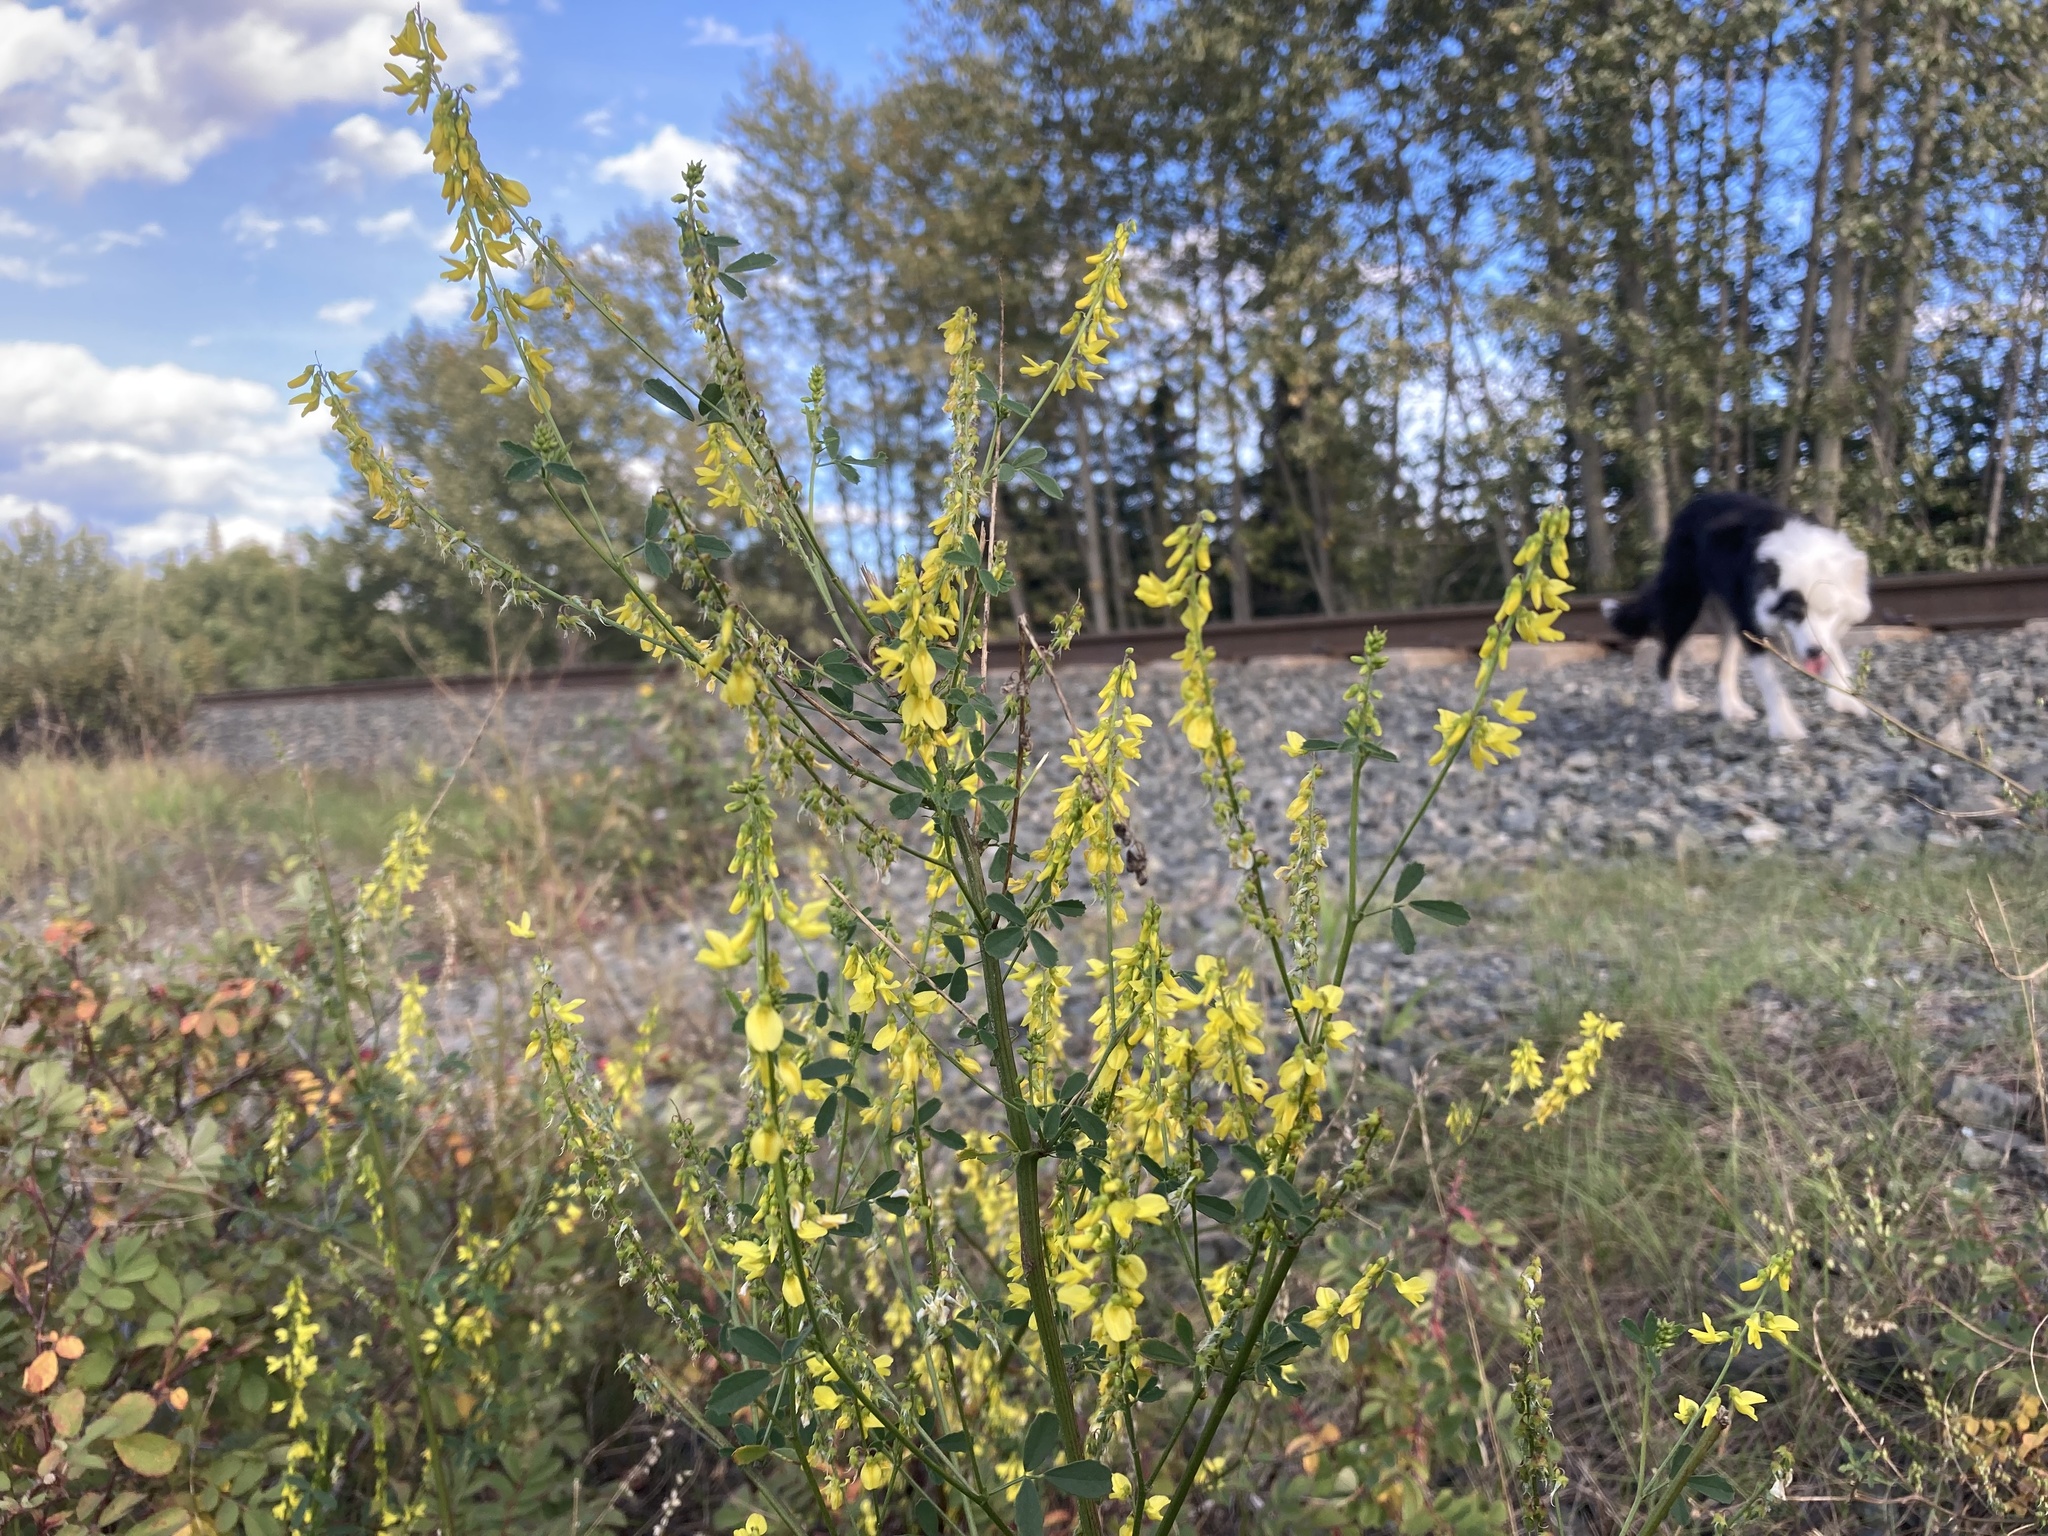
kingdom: Plantae
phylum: Tracheophyta
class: Magnoliopsida
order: Fabales
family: Fabaceae
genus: Melilotus
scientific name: Melilotus officinalis
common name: Sweetclover
